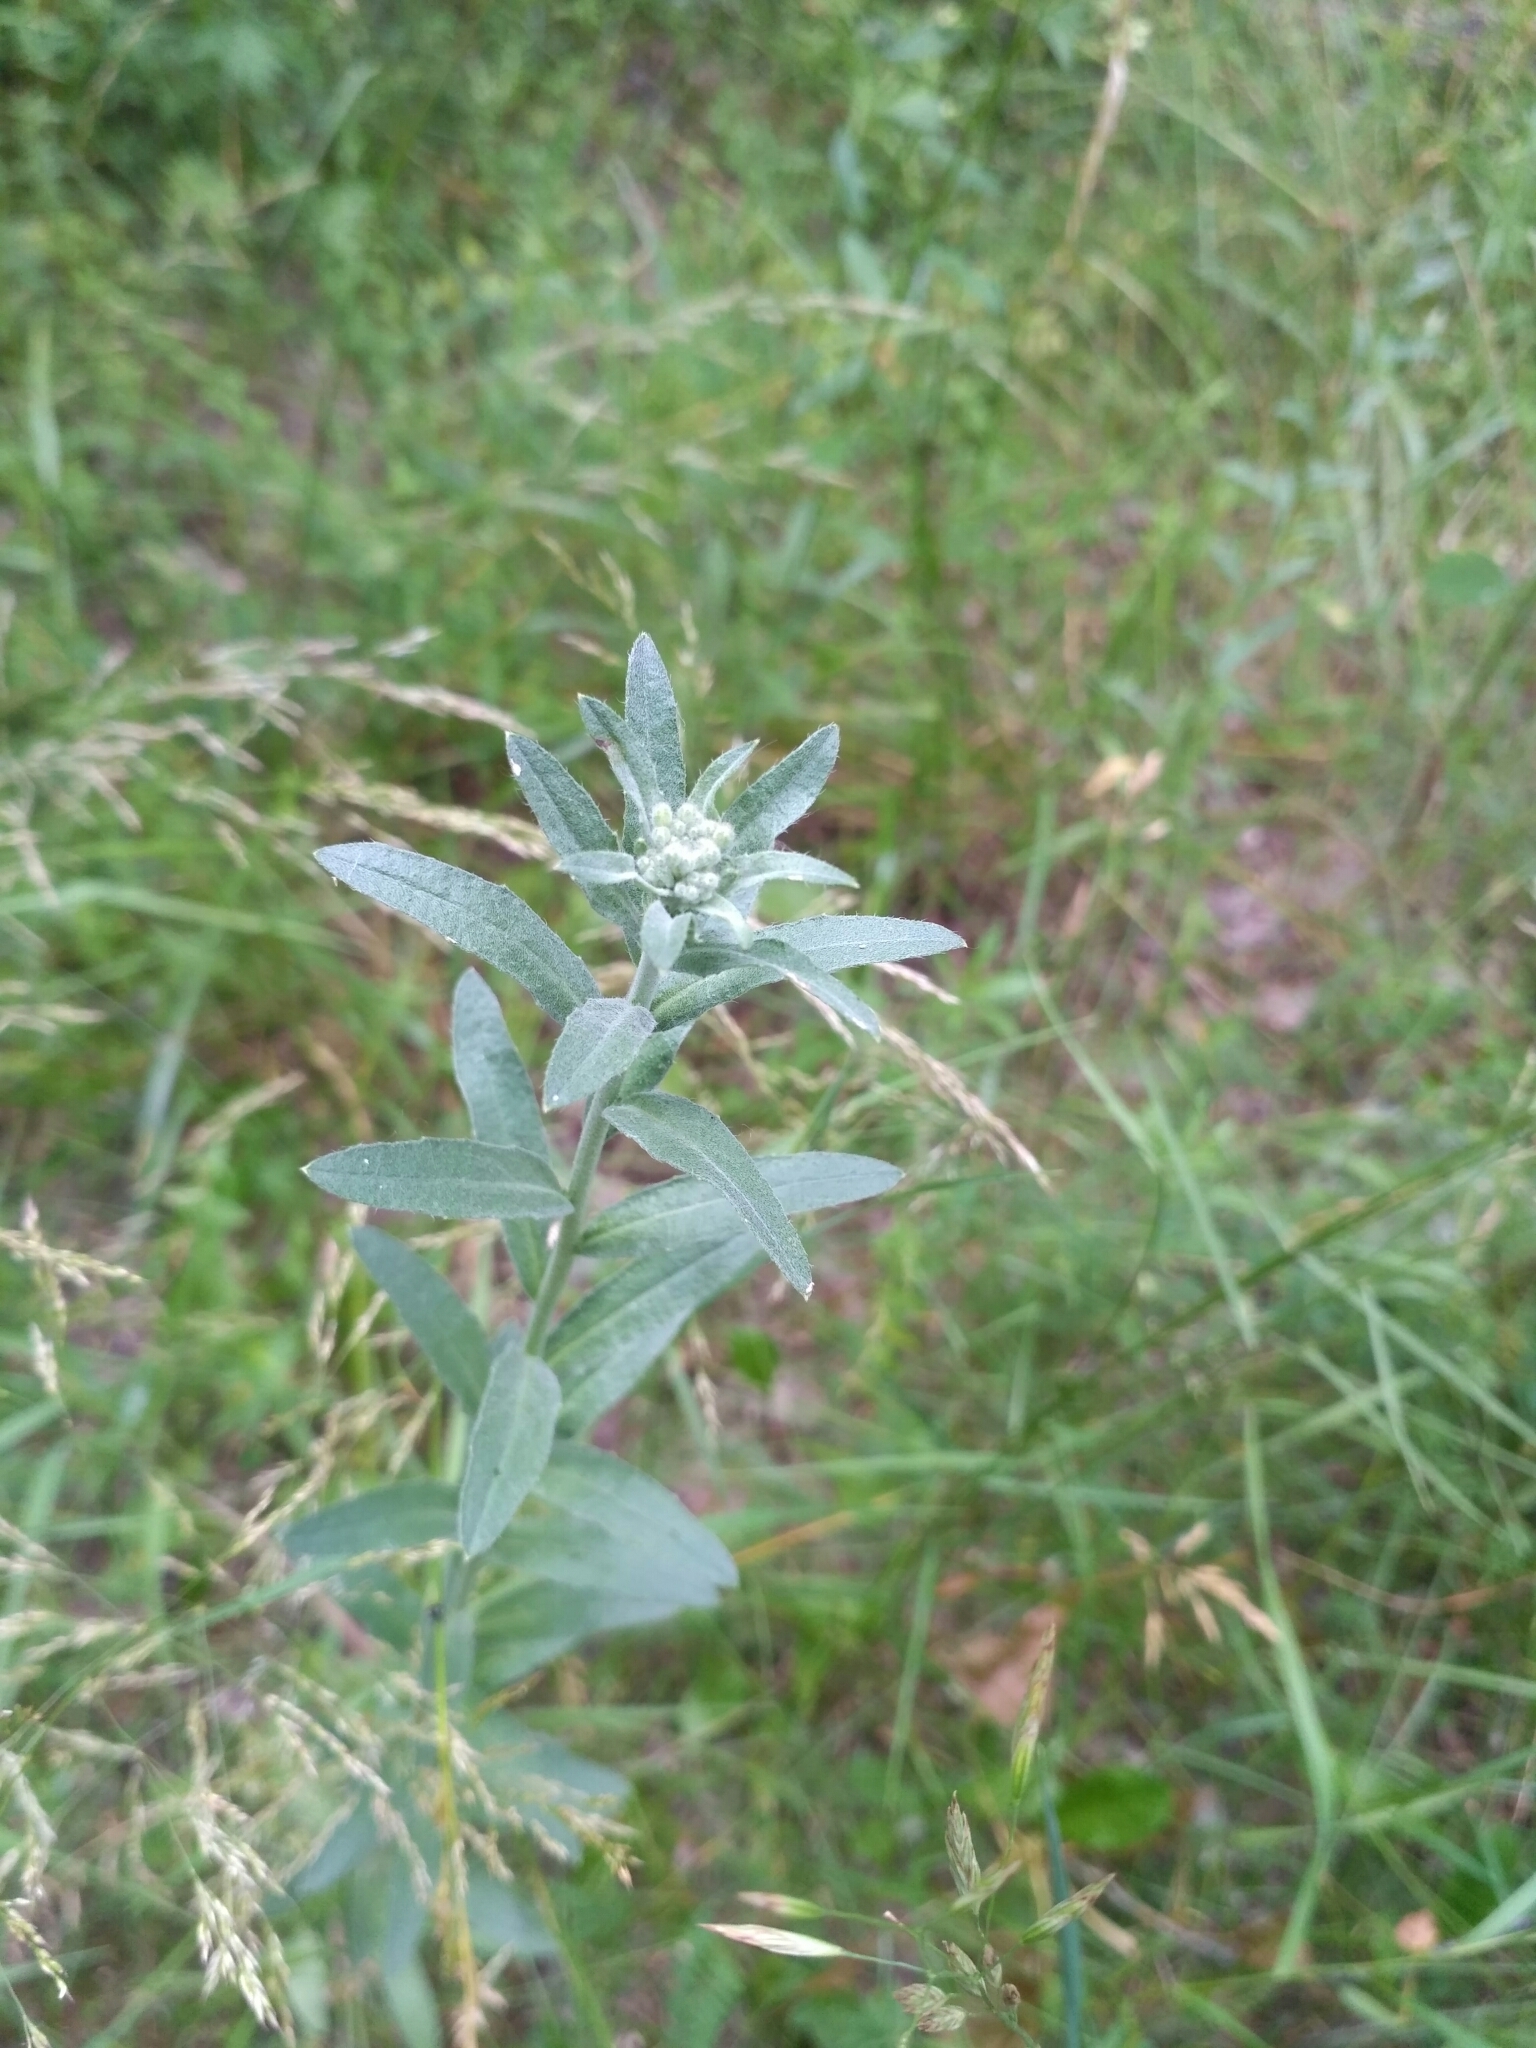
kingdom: Plantae
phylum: Tracheophyta
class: Magnoliopsida
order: Brassicales
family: Brassicaceae
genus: Berteroa
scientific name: Berteroa incana
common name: Hoary alison
